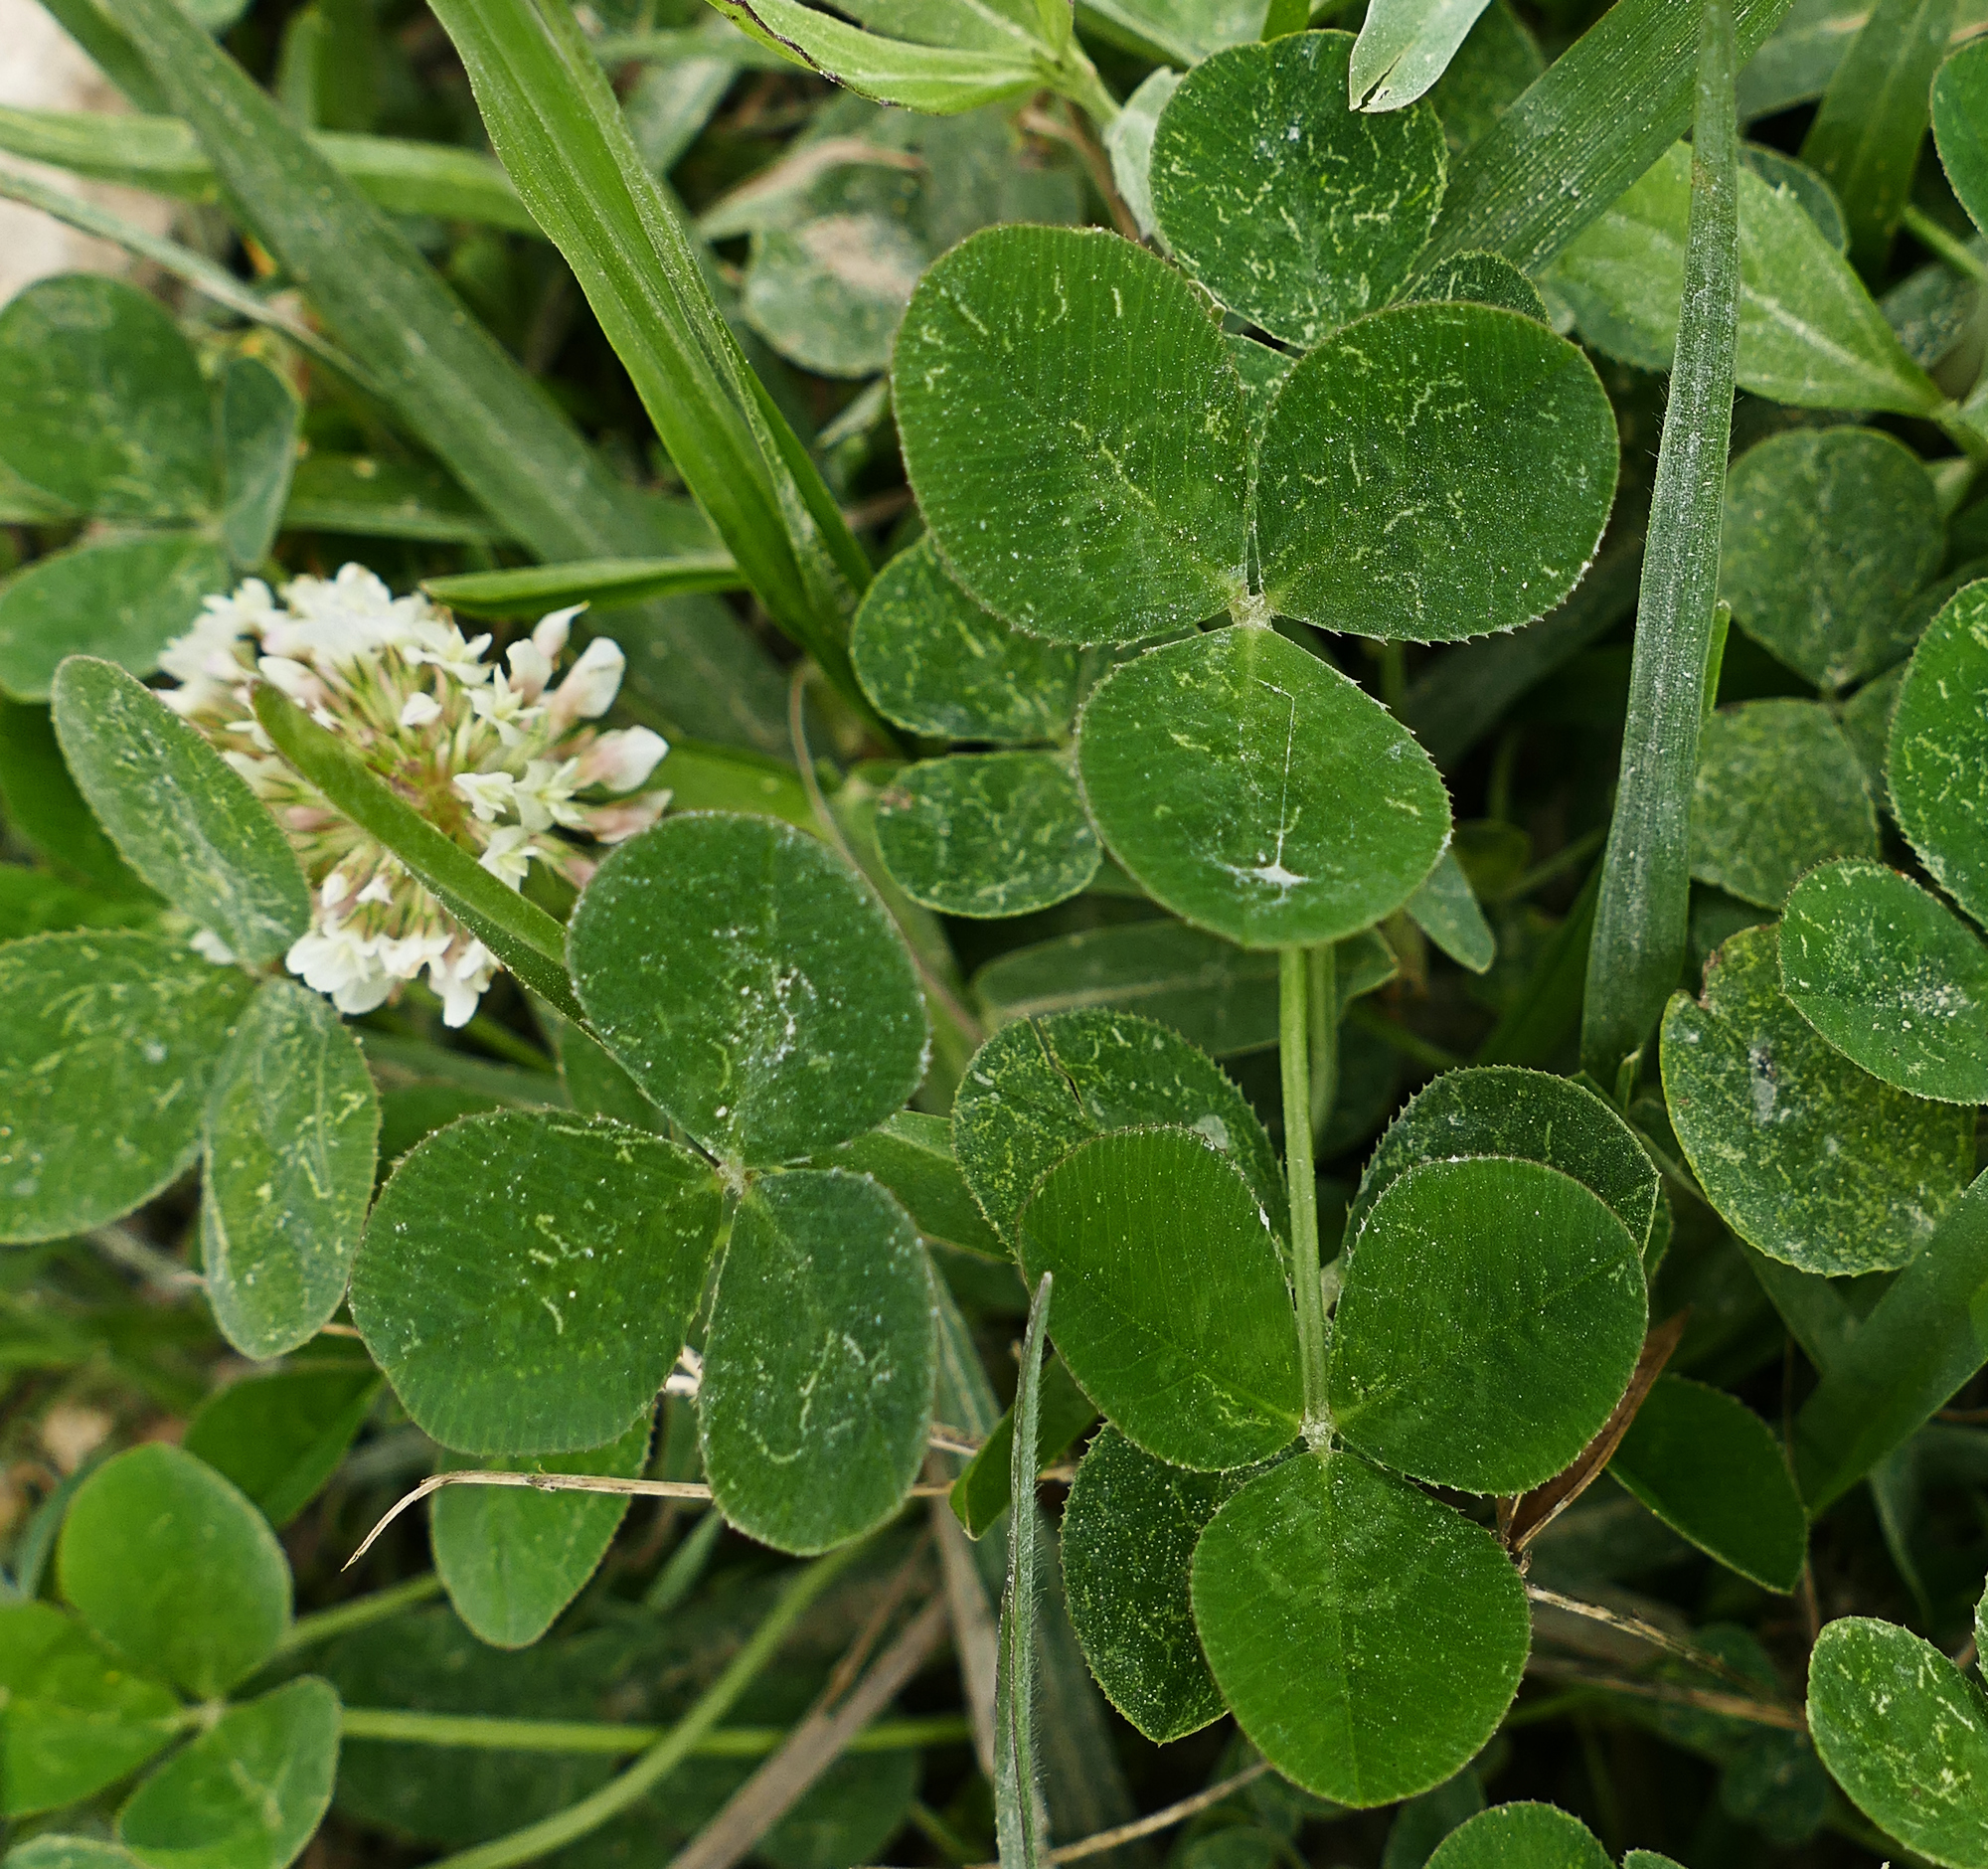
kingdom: Plantae
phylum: Tracheophyta
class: Magnoliopsida
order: Fabales
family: Fabaceae
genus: Trifolium
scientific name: Trifolium repens
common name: White clover
